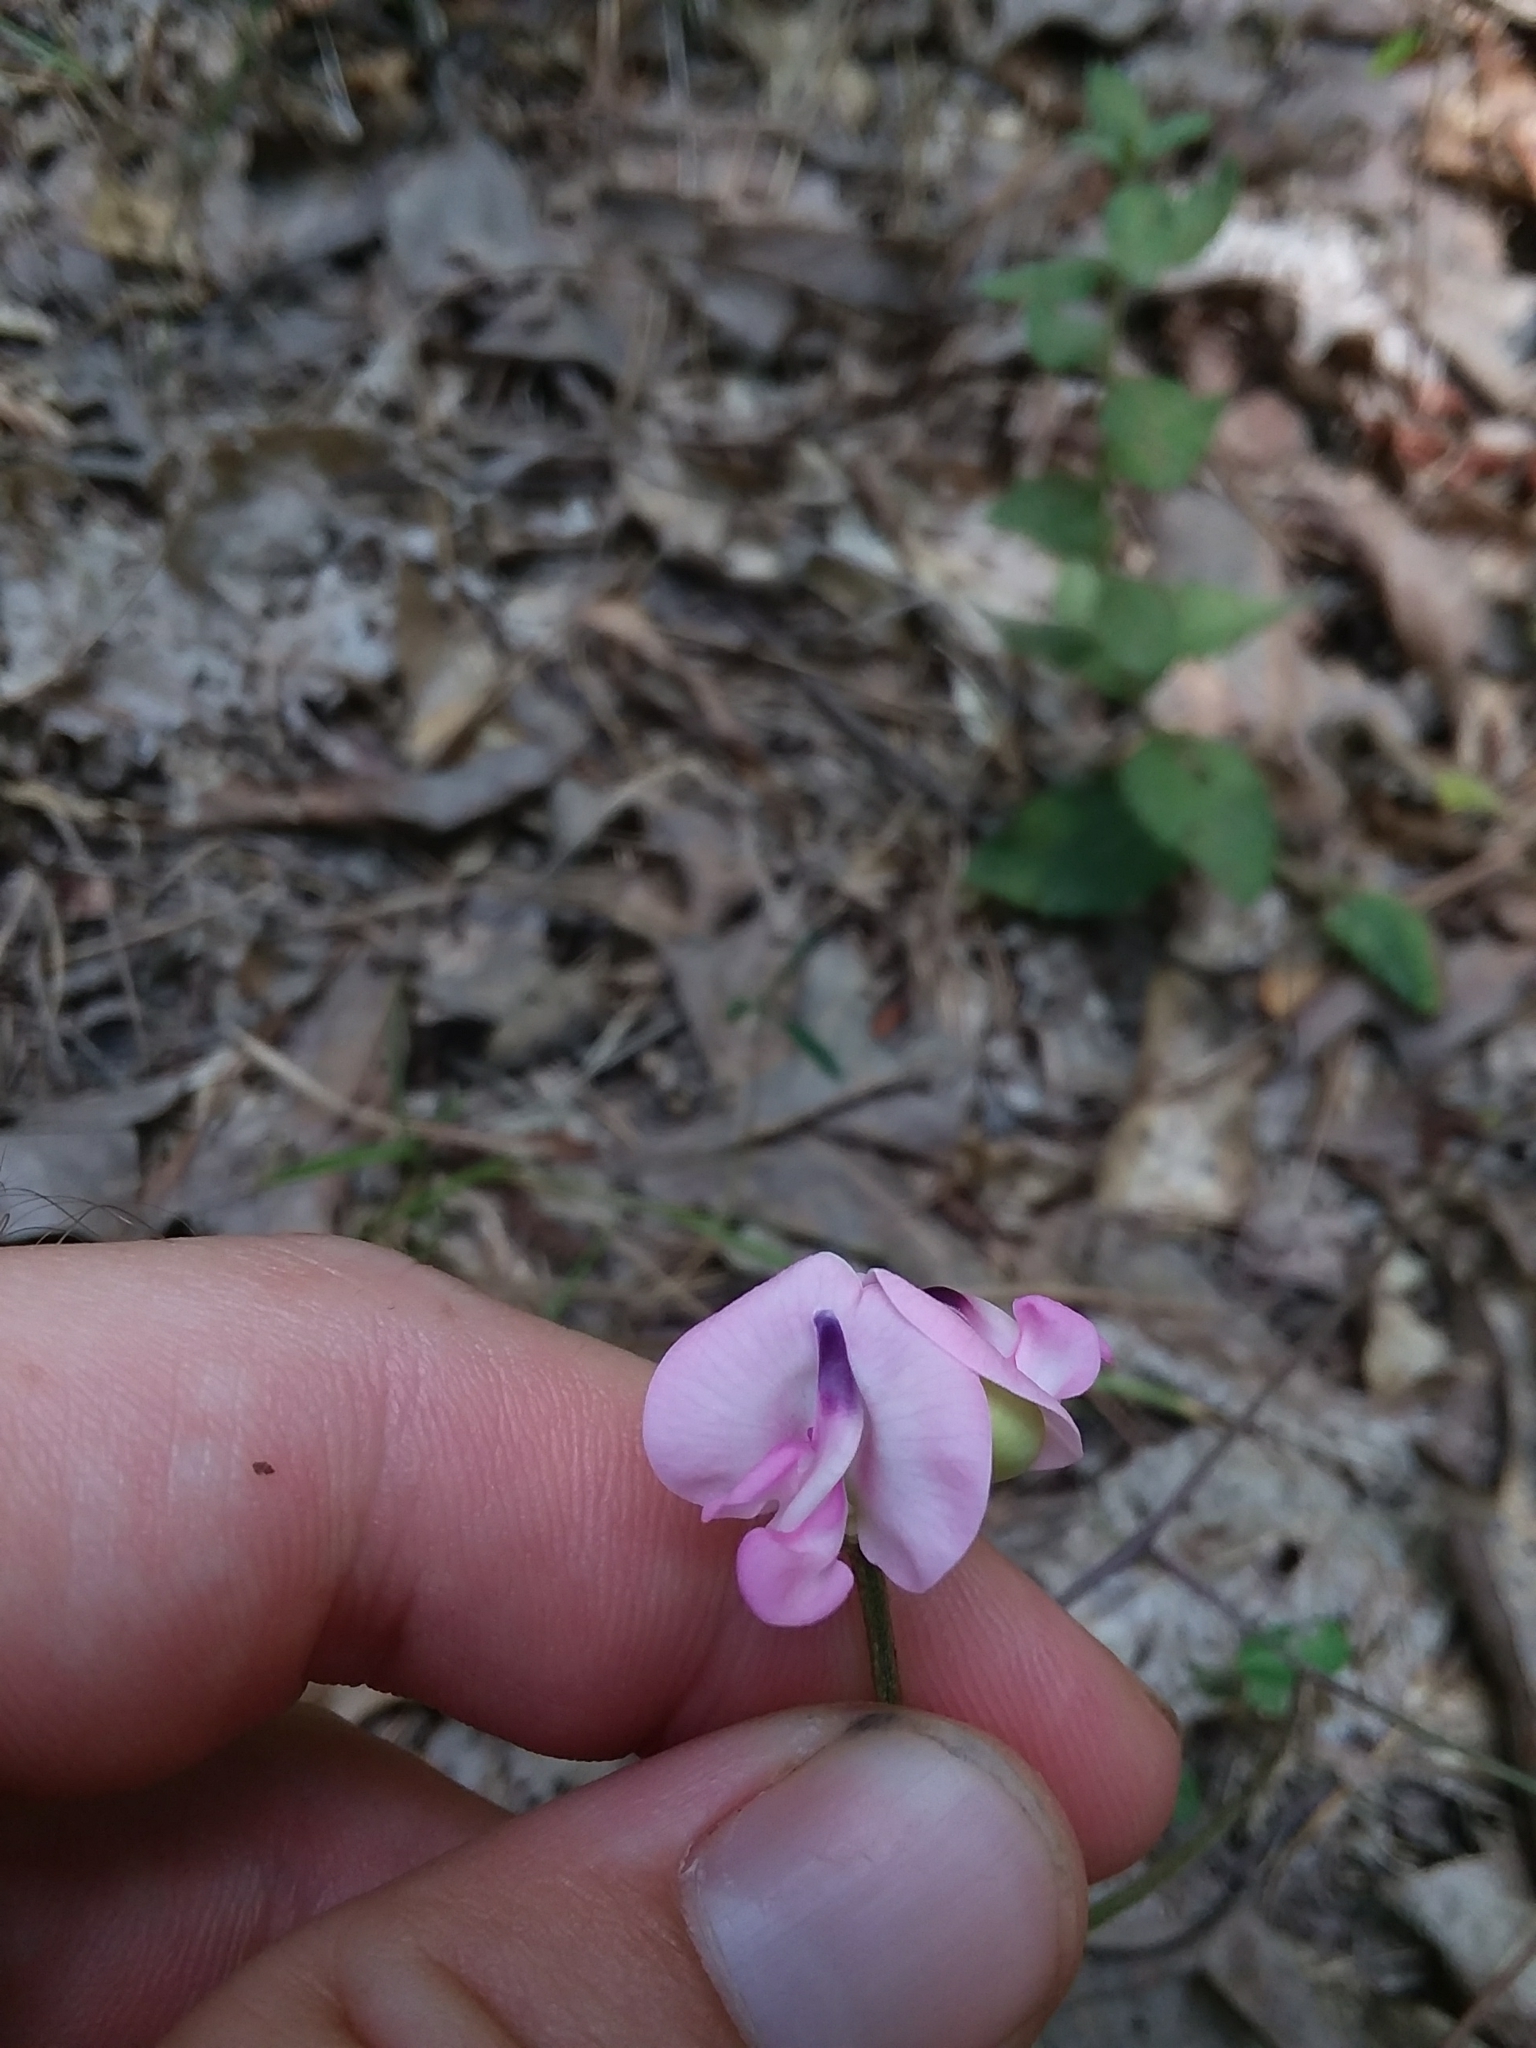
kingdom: Plantae
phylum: Tracheophyta
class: Magnoliopsida
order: Fabales
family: Fabaceae
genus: Strophostyles
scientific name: Strophostyles umbellata
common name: Perennial wild bean
